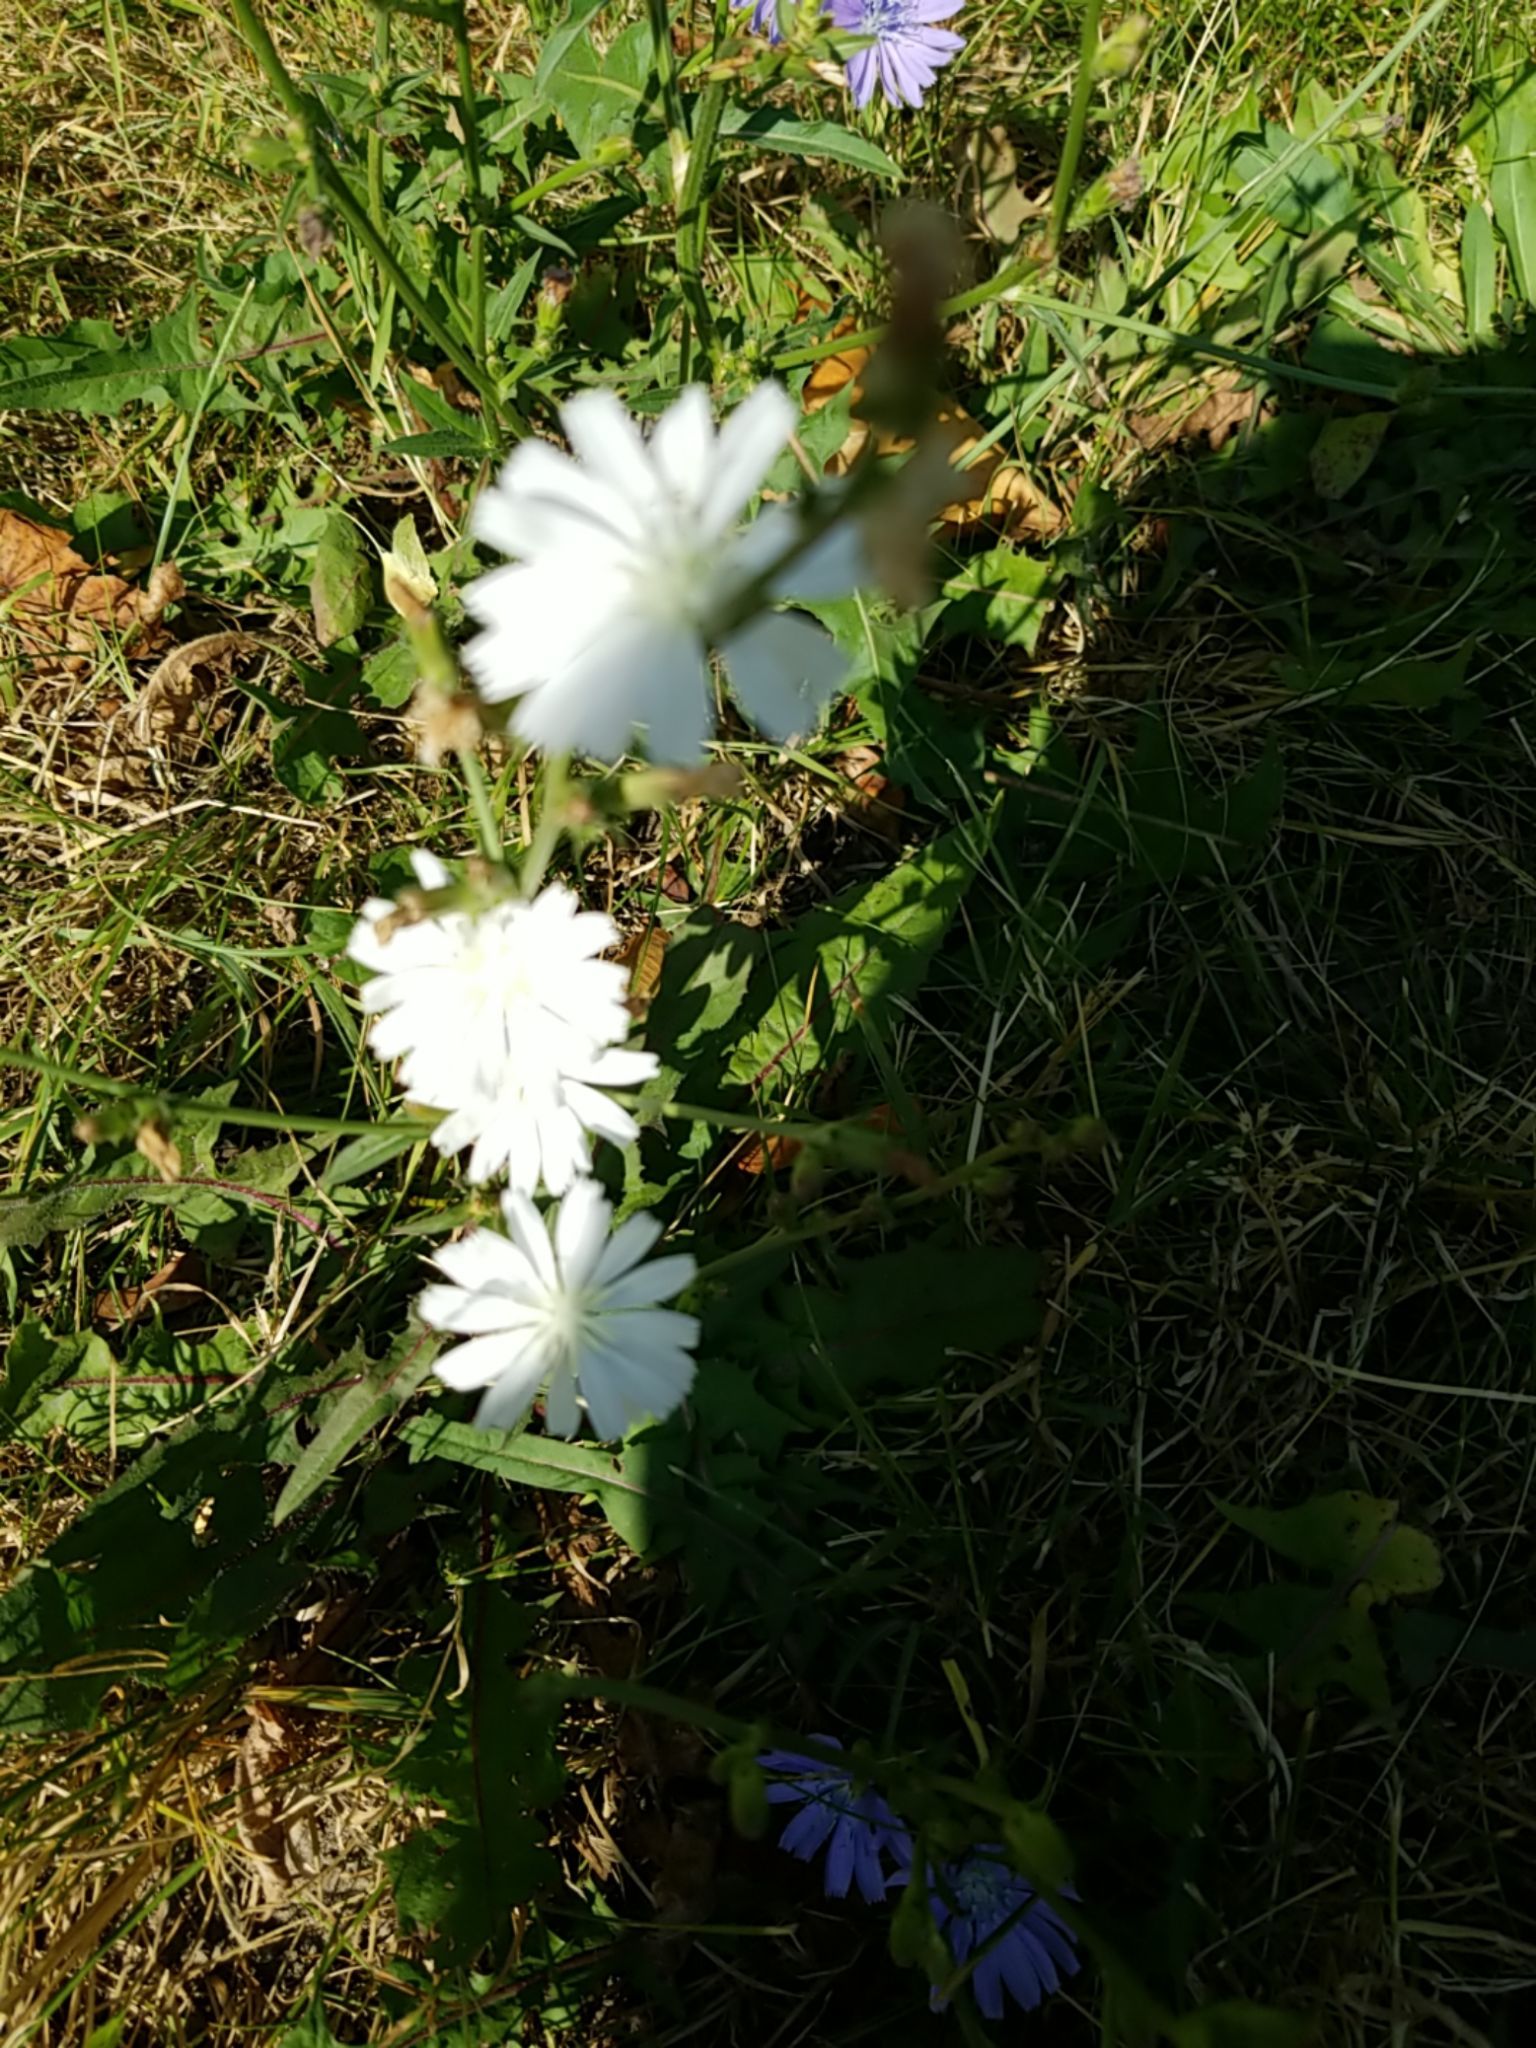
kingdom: Plantae
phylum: Tracheophyta
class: Magnoliopsida
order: Asterales
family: Asteraceae
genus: Cichorium
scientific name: Cichorium intybus
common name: Chicory
